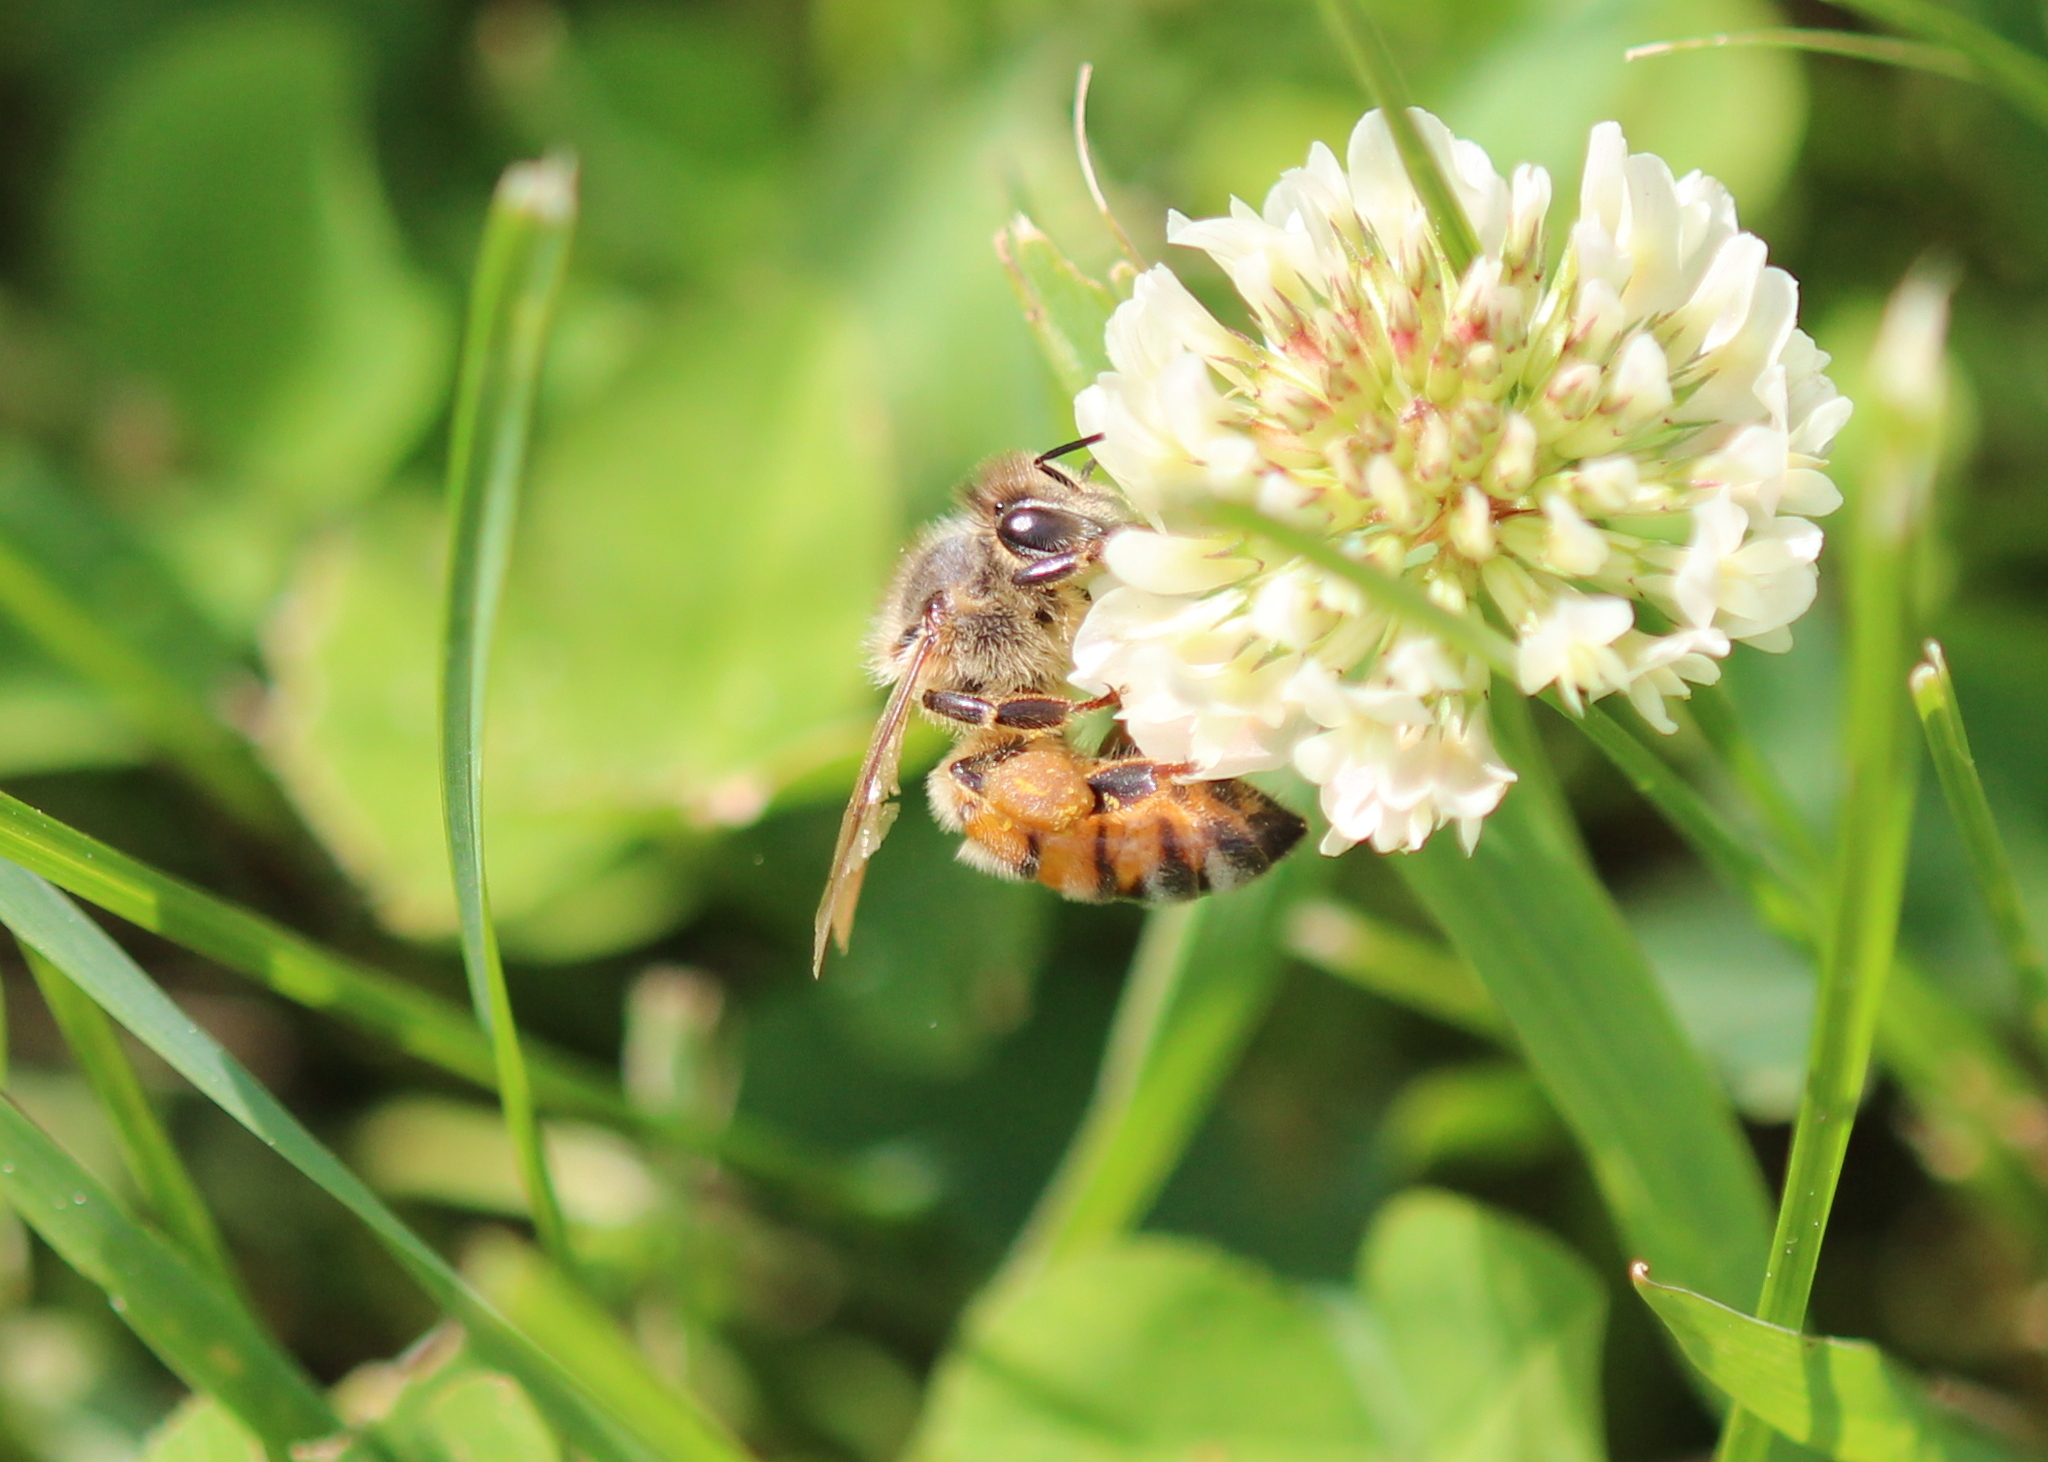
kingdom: Animalia
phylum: Arthropoda
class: Insecta
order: Hymenoptera
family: Apidae
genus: Apis
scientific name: Apis mellifera
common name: Honey bee
